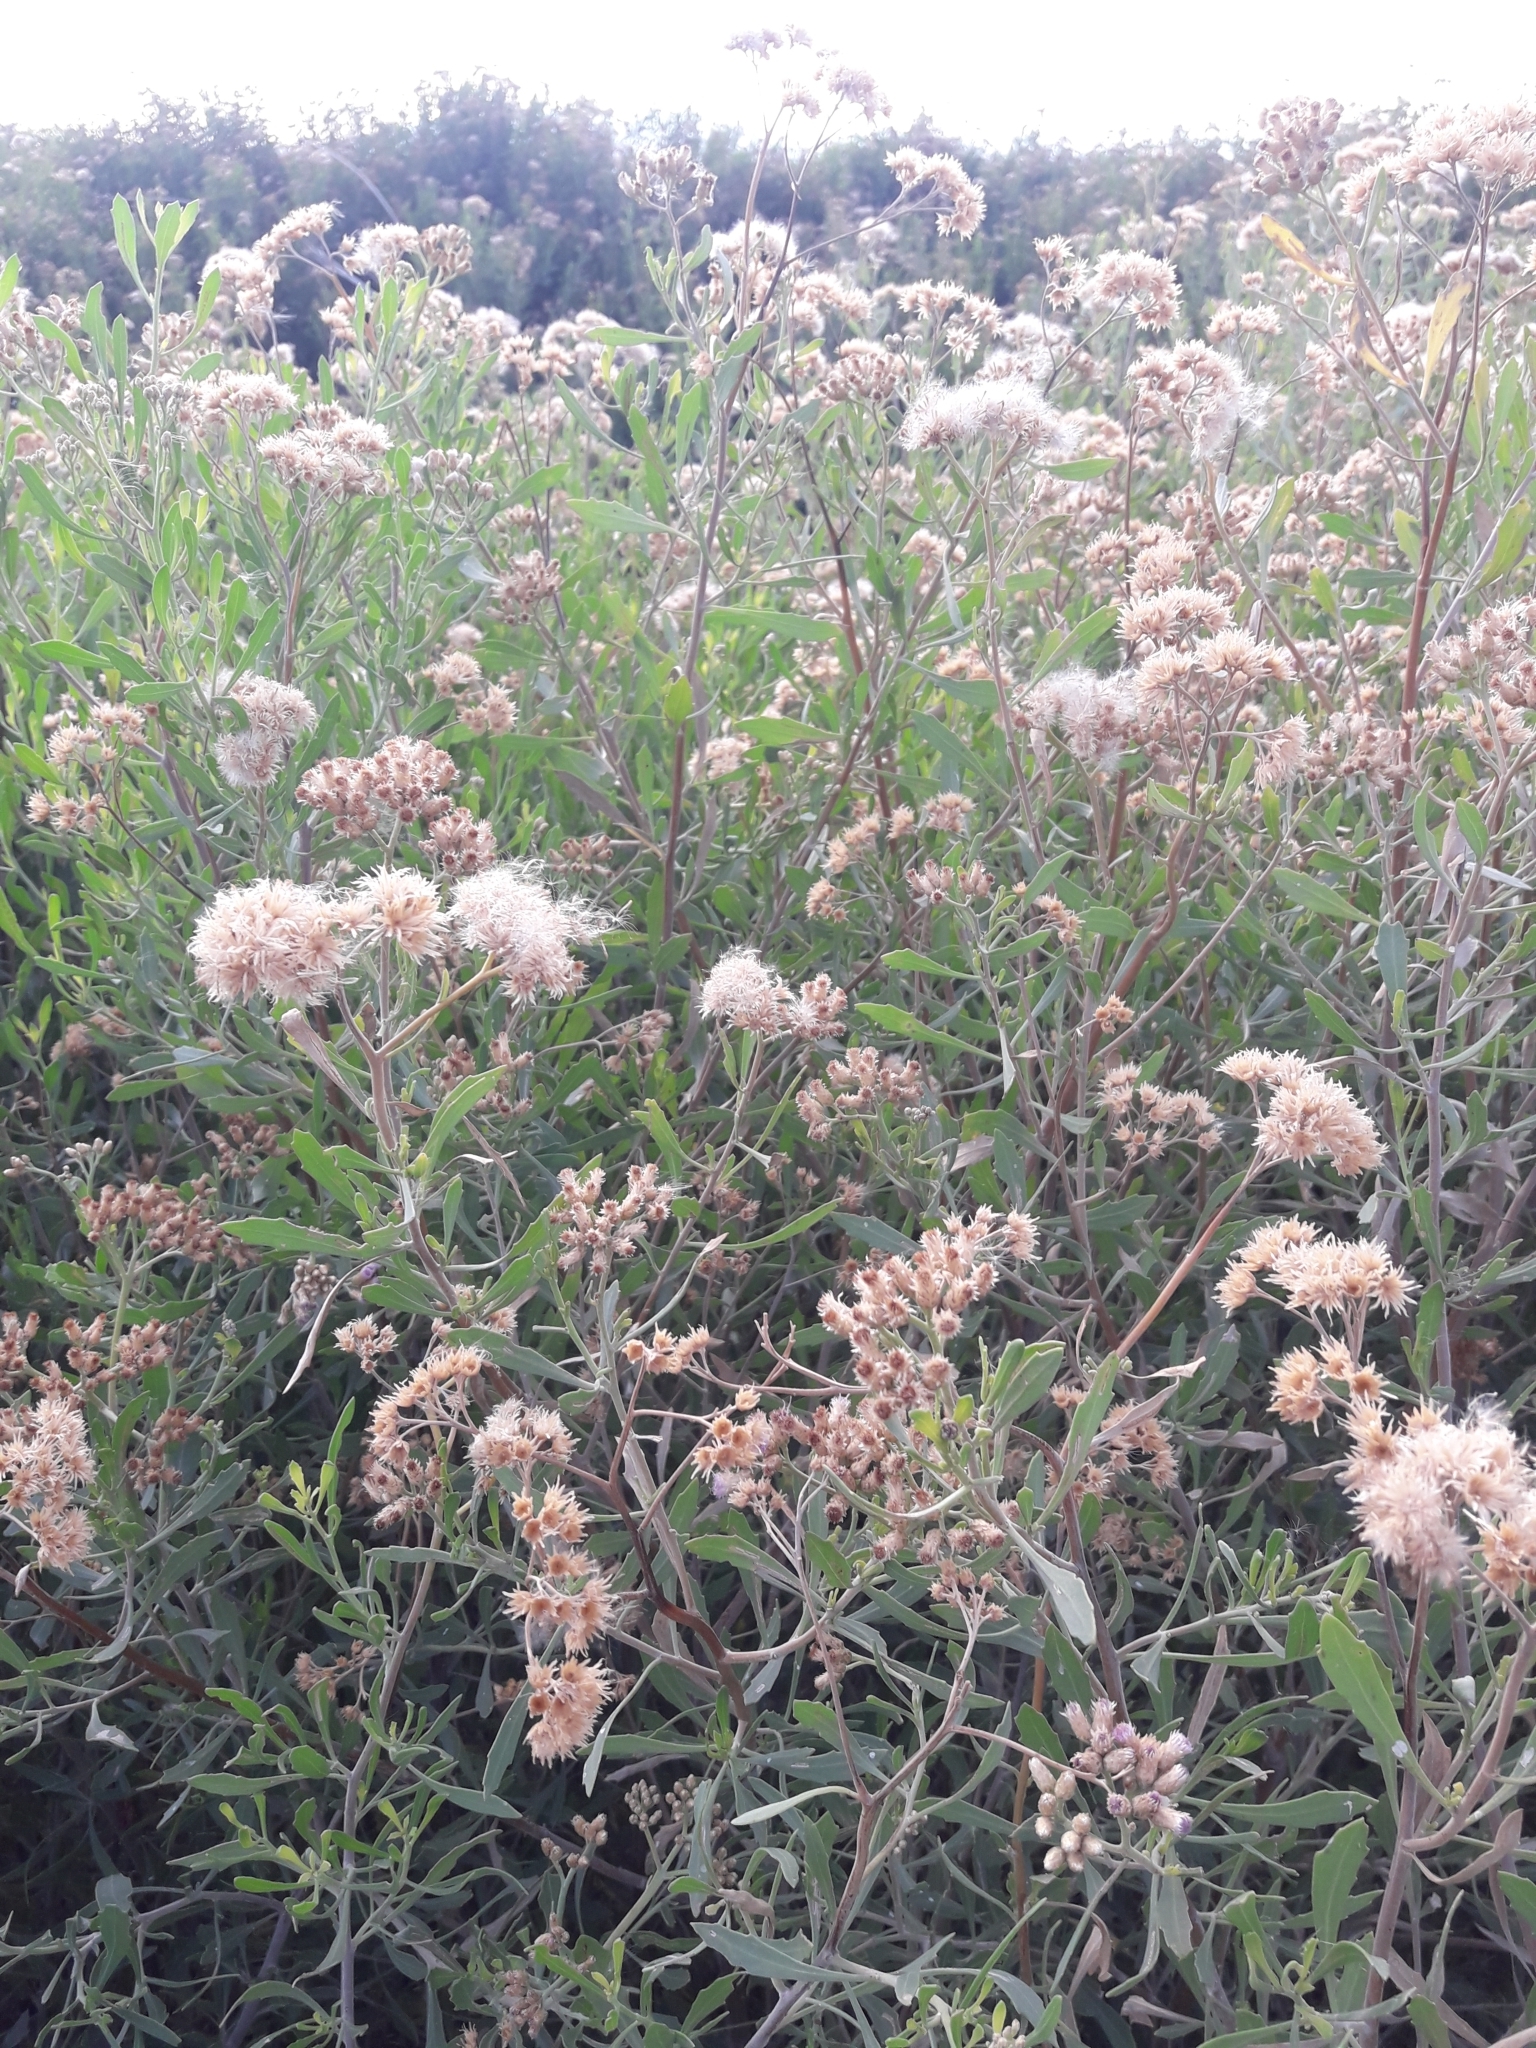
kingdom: Plantae
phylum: Tracheophyta
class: Magnoliopsida
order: Asterales
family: Asteraceae
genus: Tessaria
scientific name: Tessaria absinthioides
